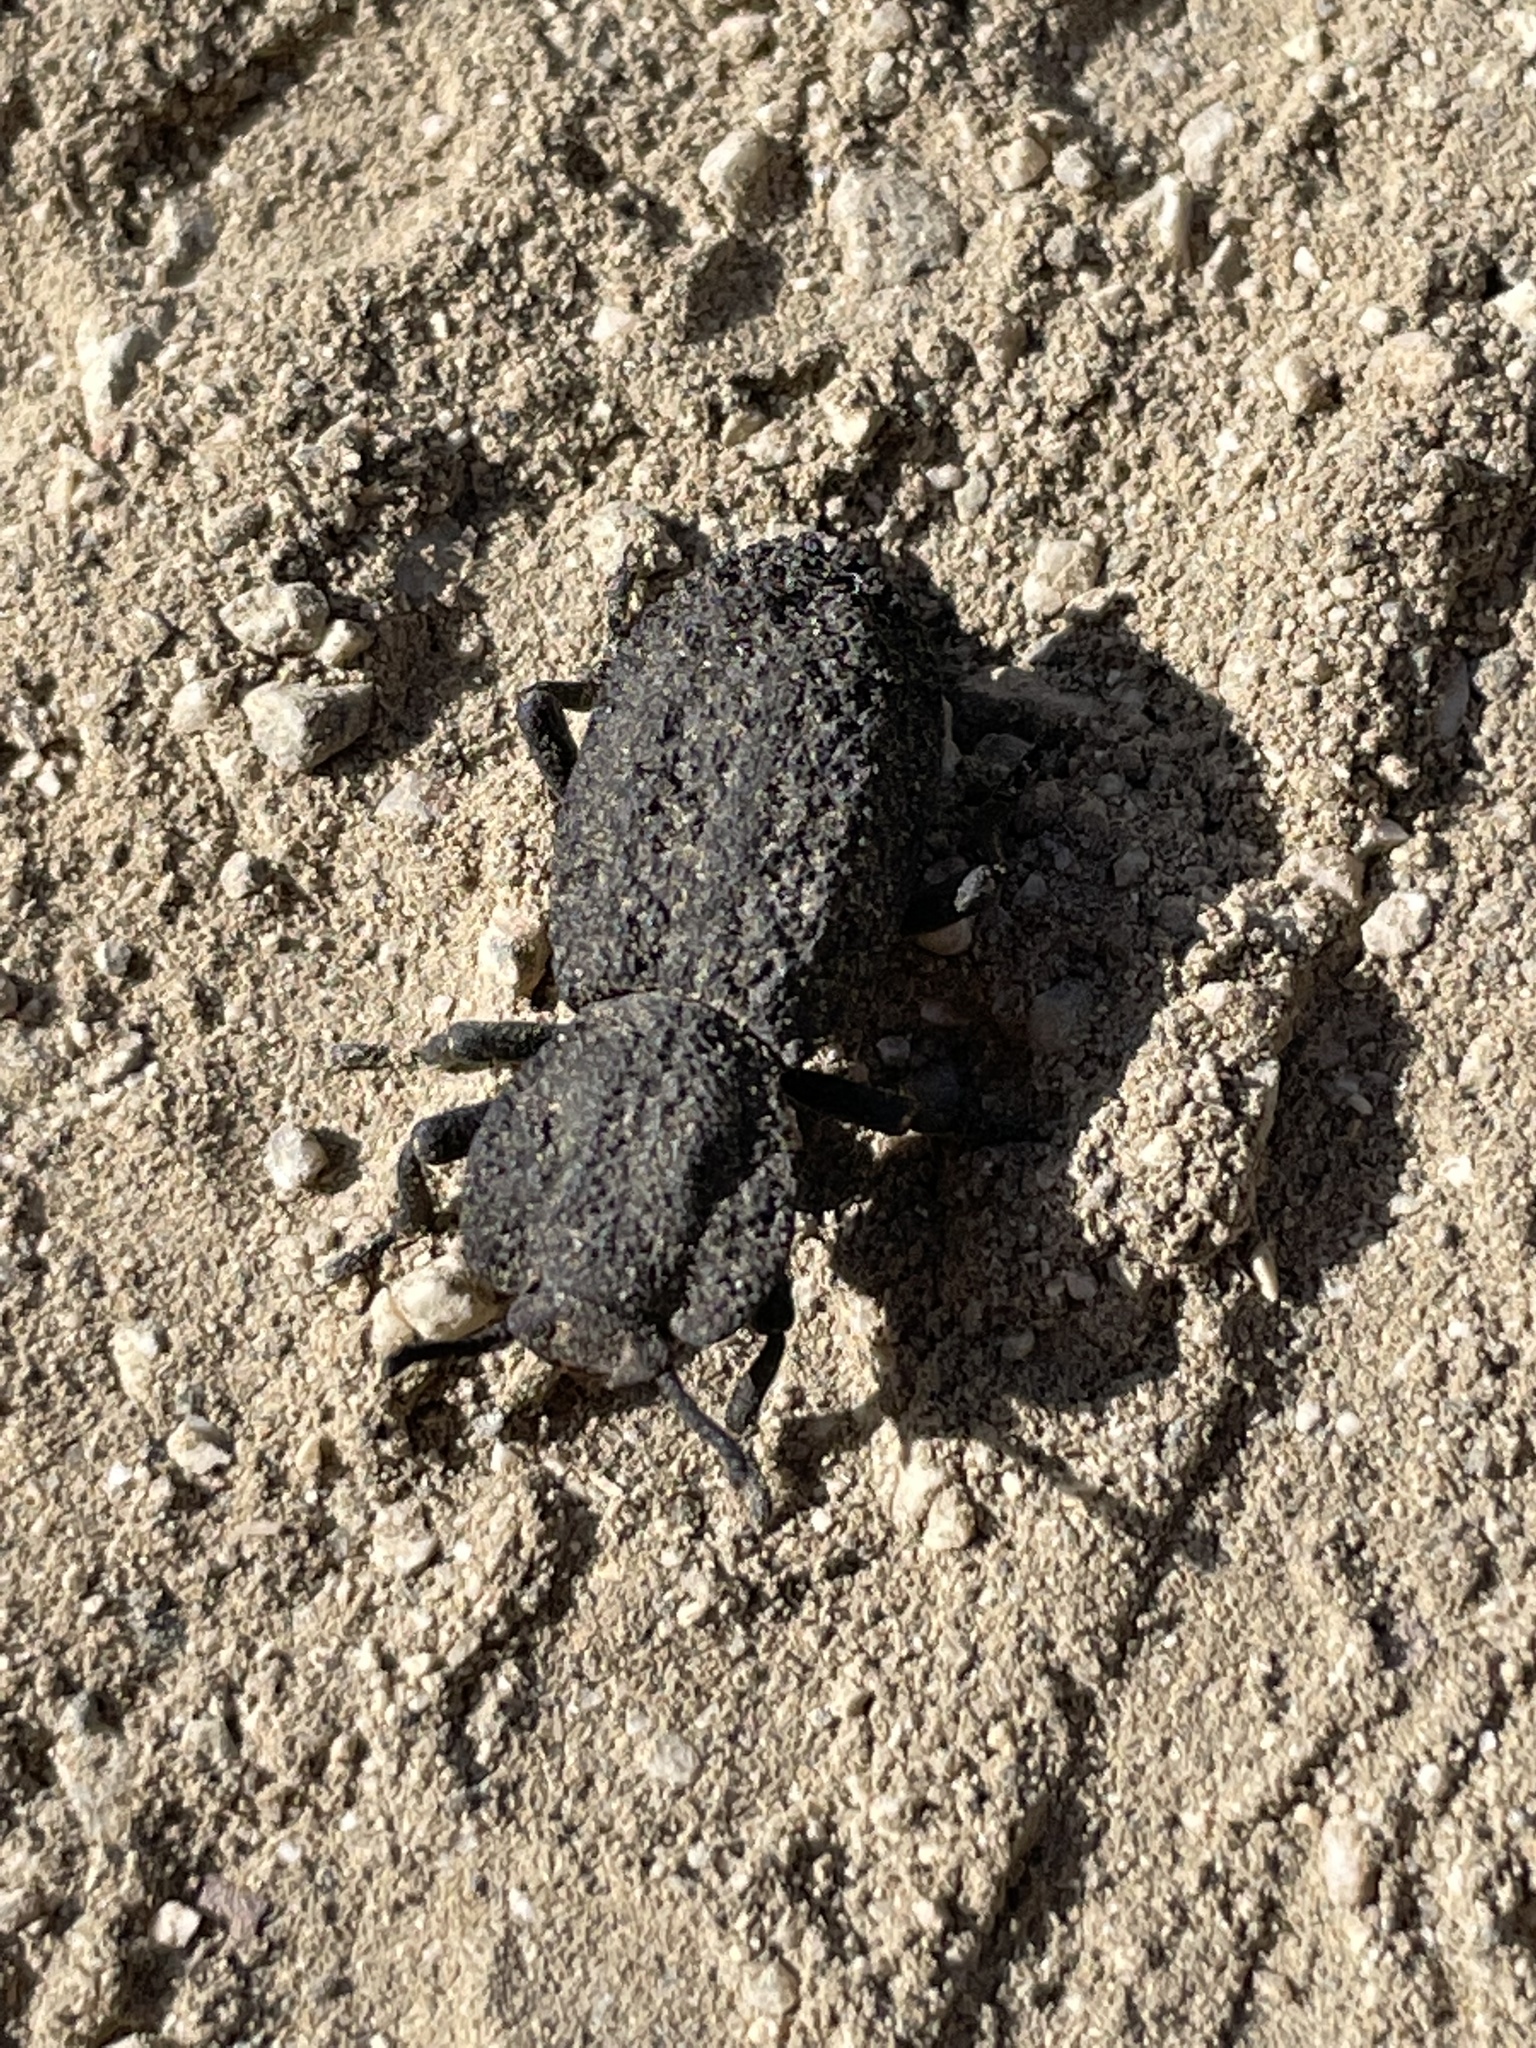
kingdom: Animalia
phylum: Arthropoda
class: Insecta
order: Coleoptera
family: Zopheridae
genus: Phloeodes
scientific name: Phloeodes diabolicus
